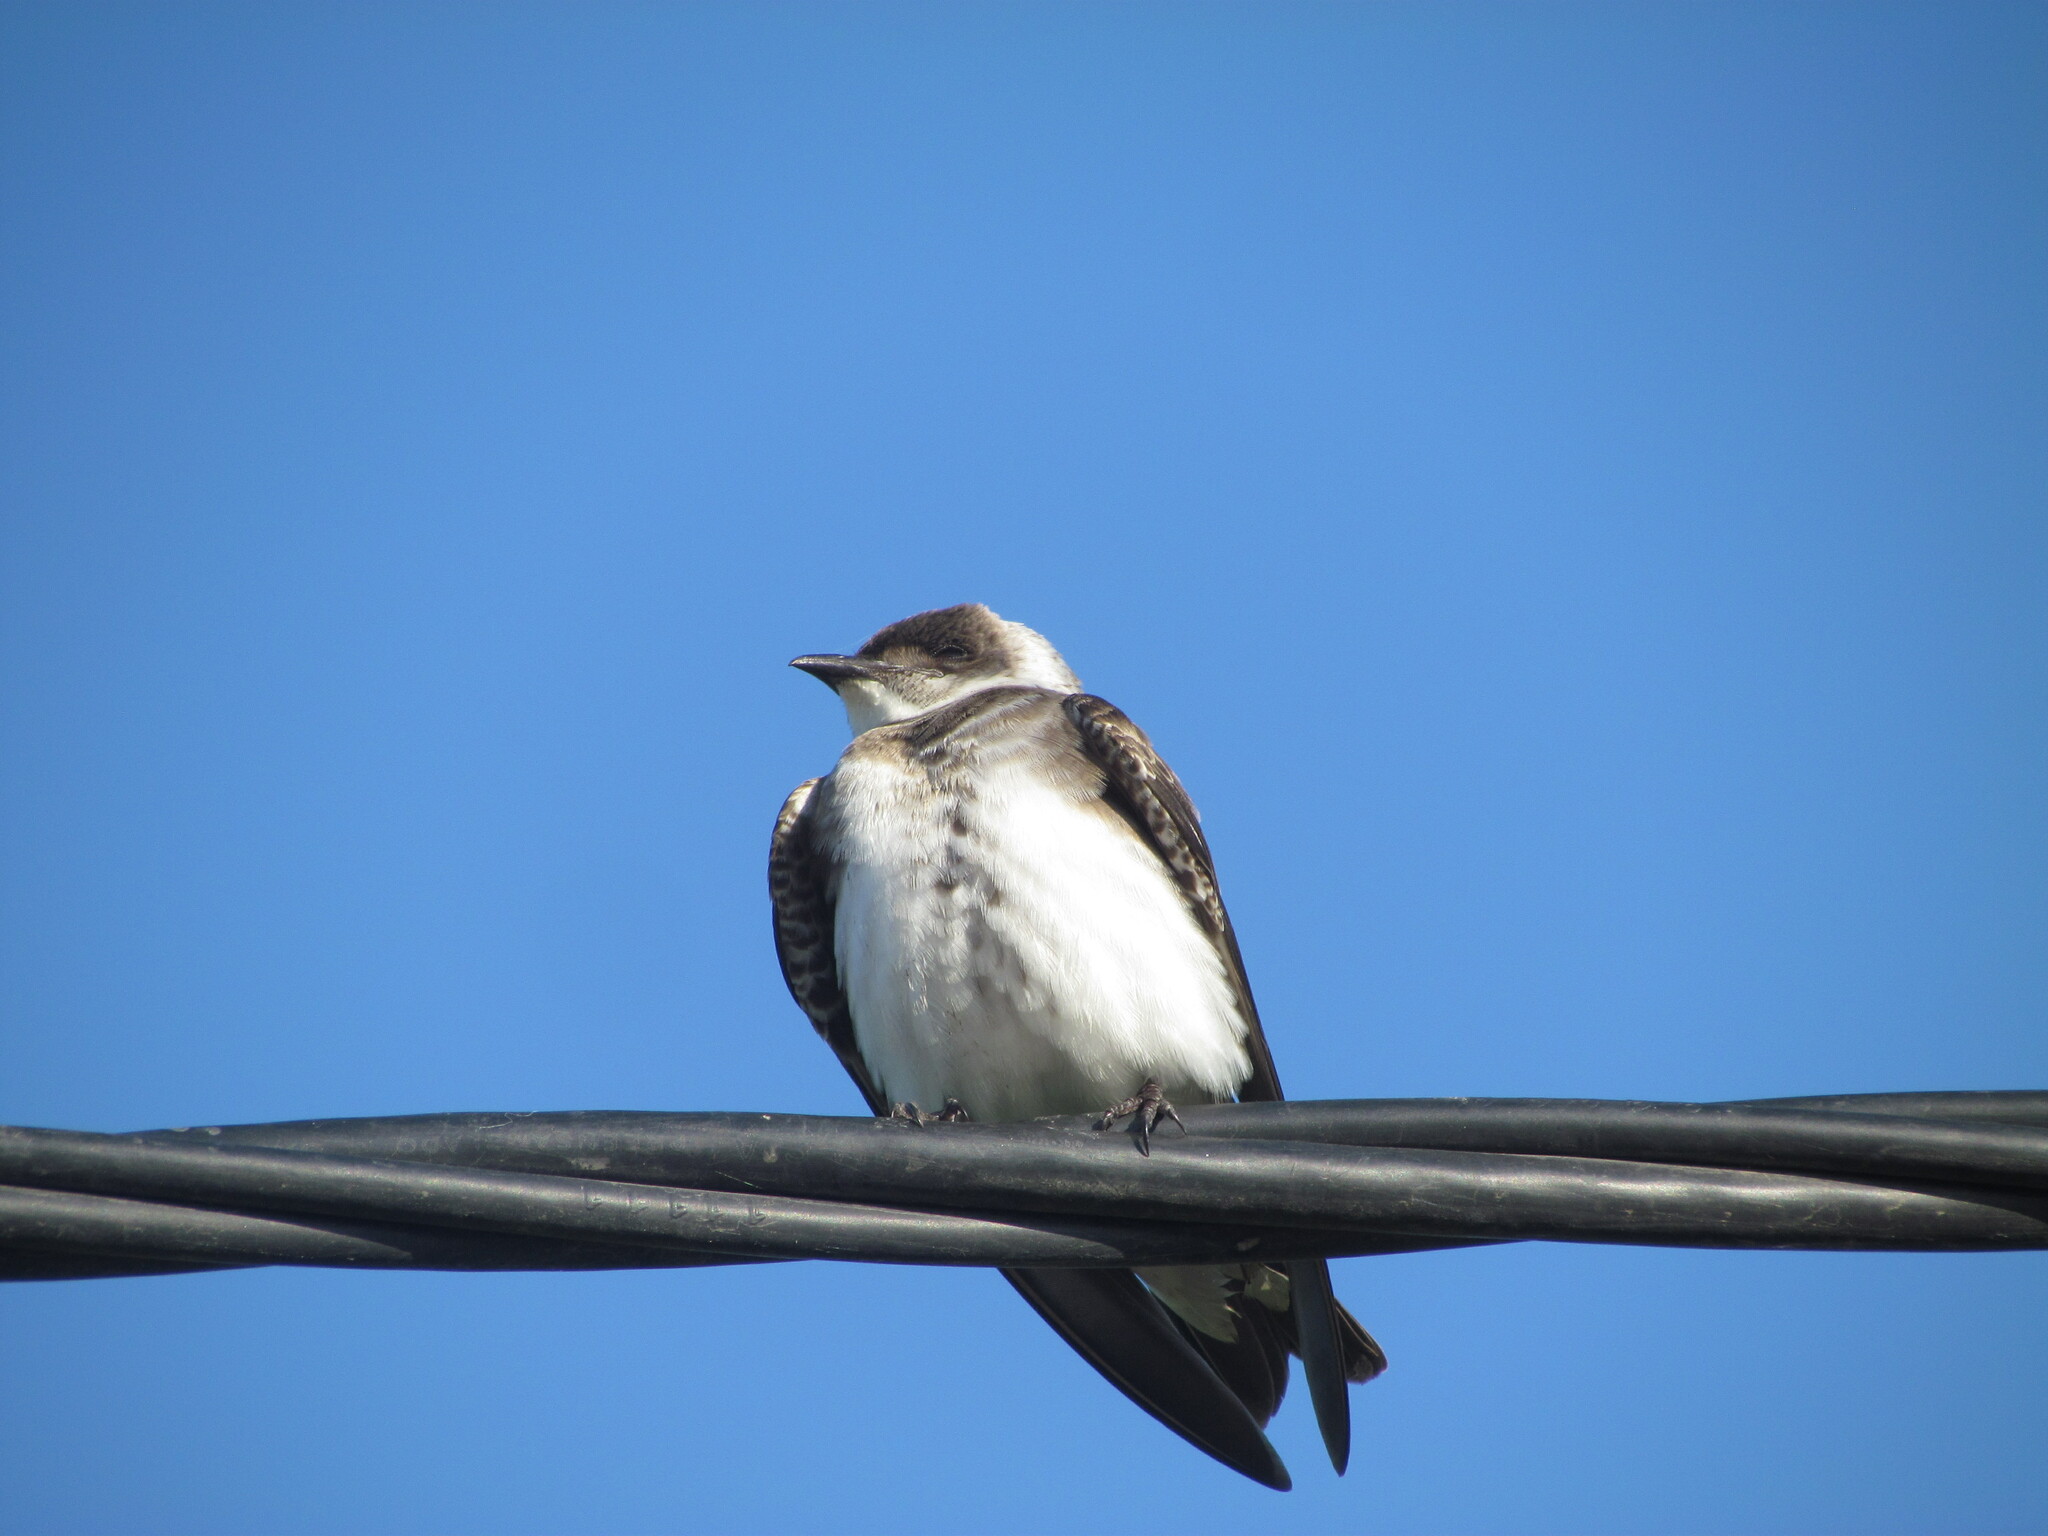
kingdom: Animalia
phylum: Chordata
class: Aves
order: Passeriformes
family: Hirundinidae
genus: Progne
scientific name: Progne tapera
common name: Brown-chested martin
